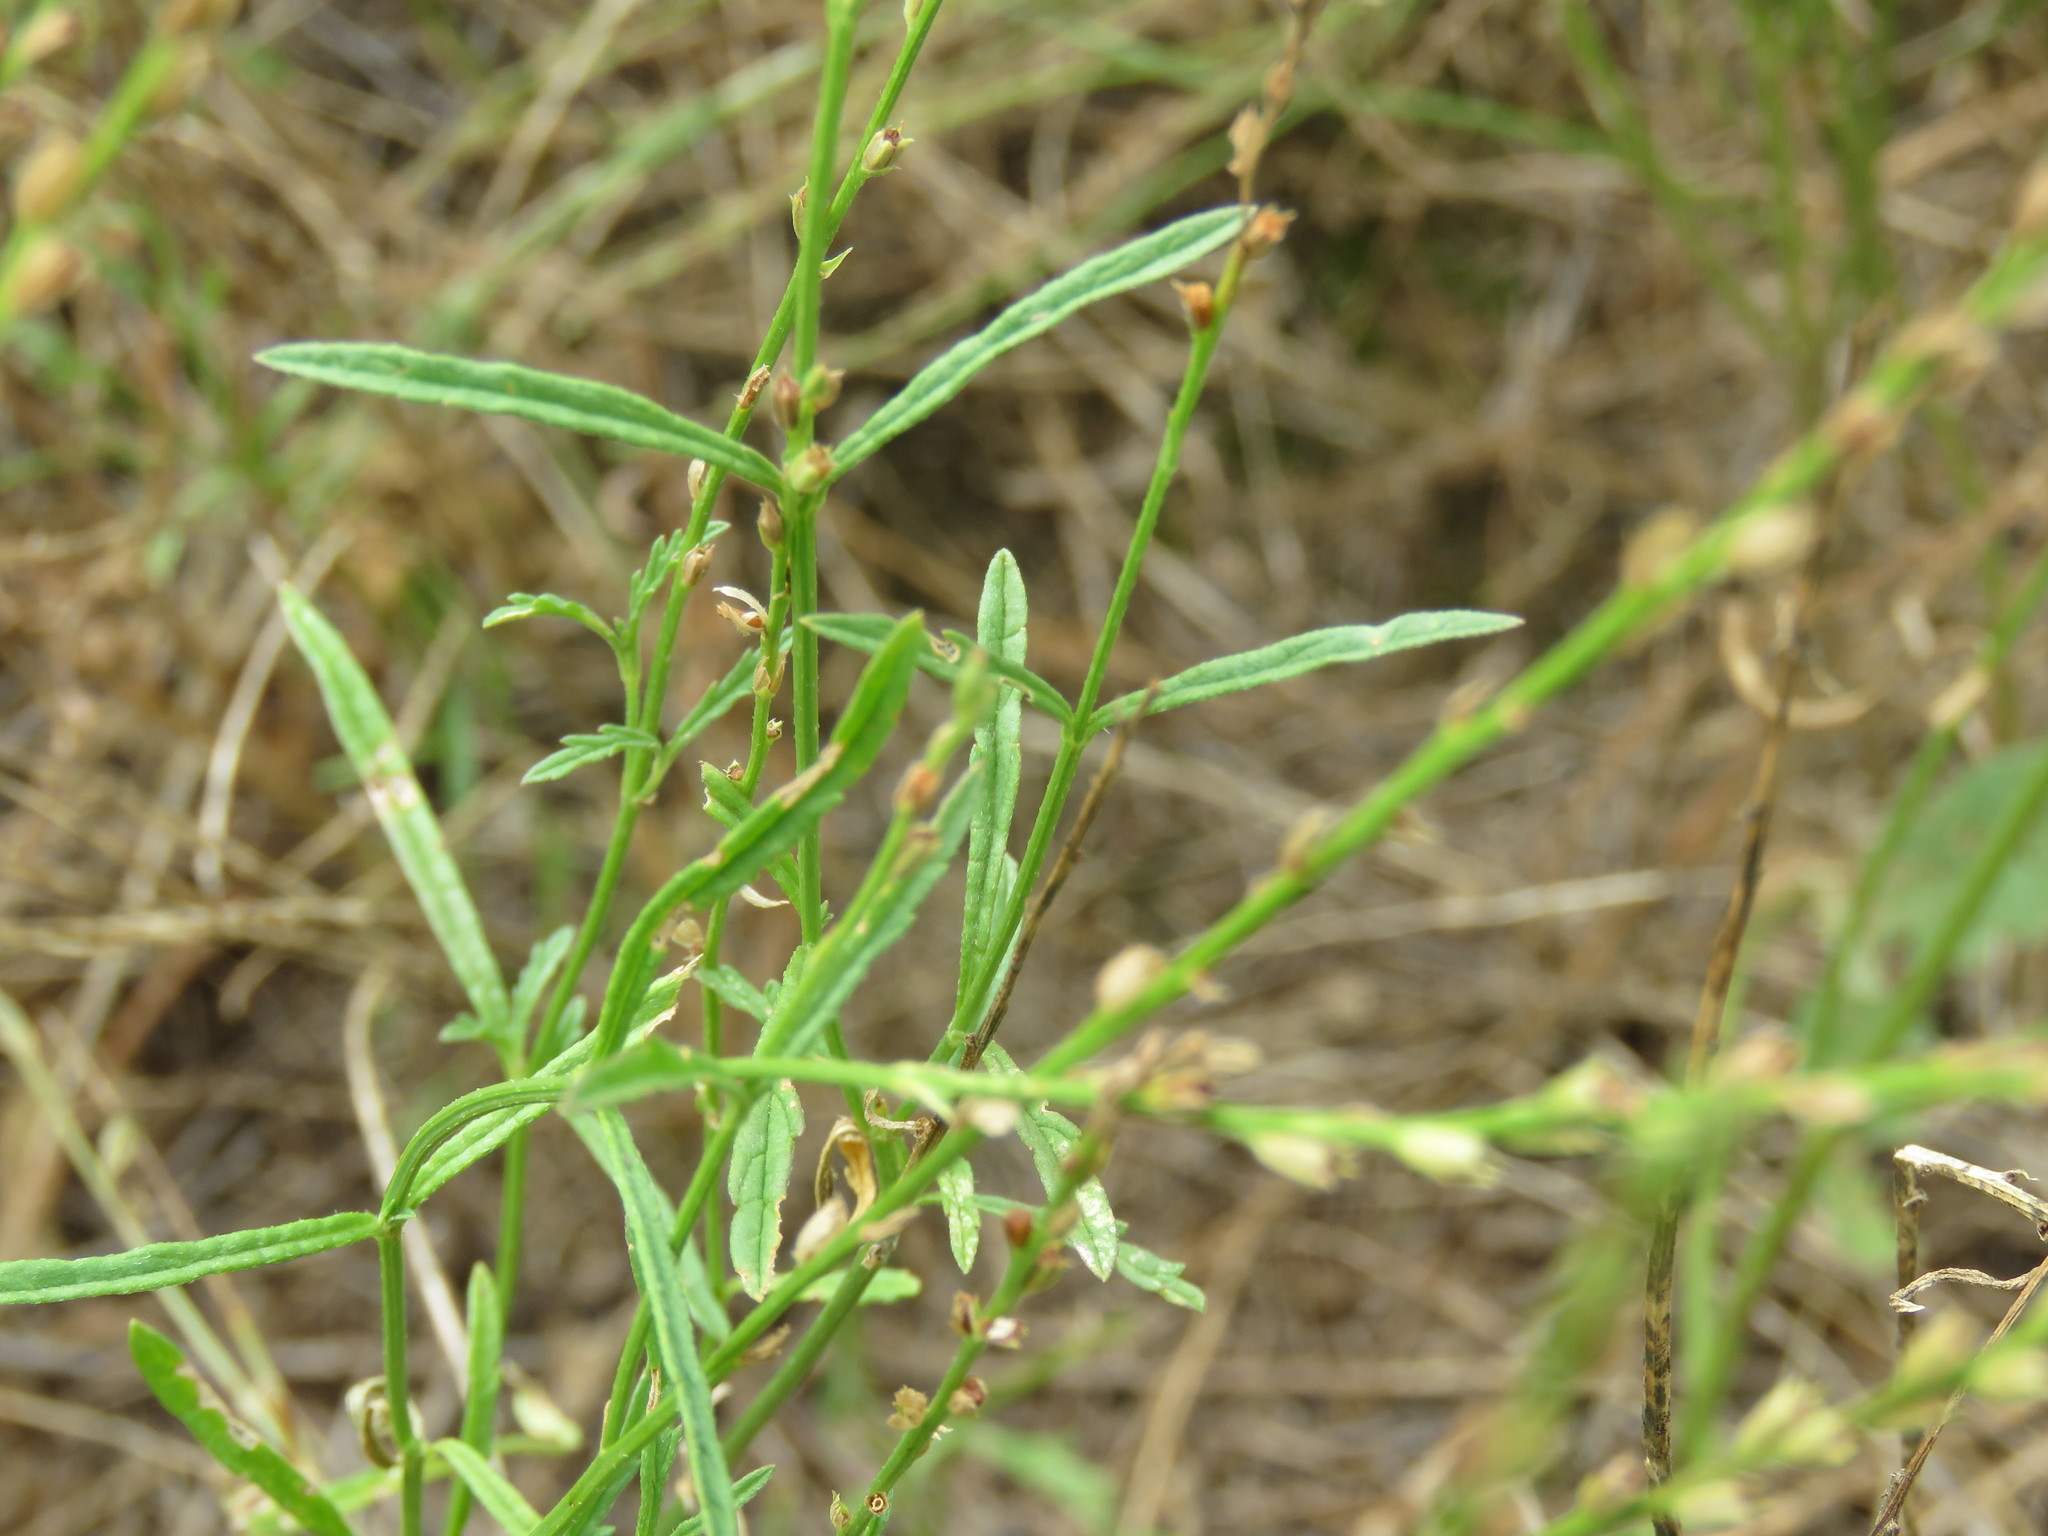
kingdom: Plantae
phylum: Tracheophyta
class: Magnoliopsida
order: Lamiales
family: Verbenaceae
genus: Verbena
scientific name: Verbena neomexicana
